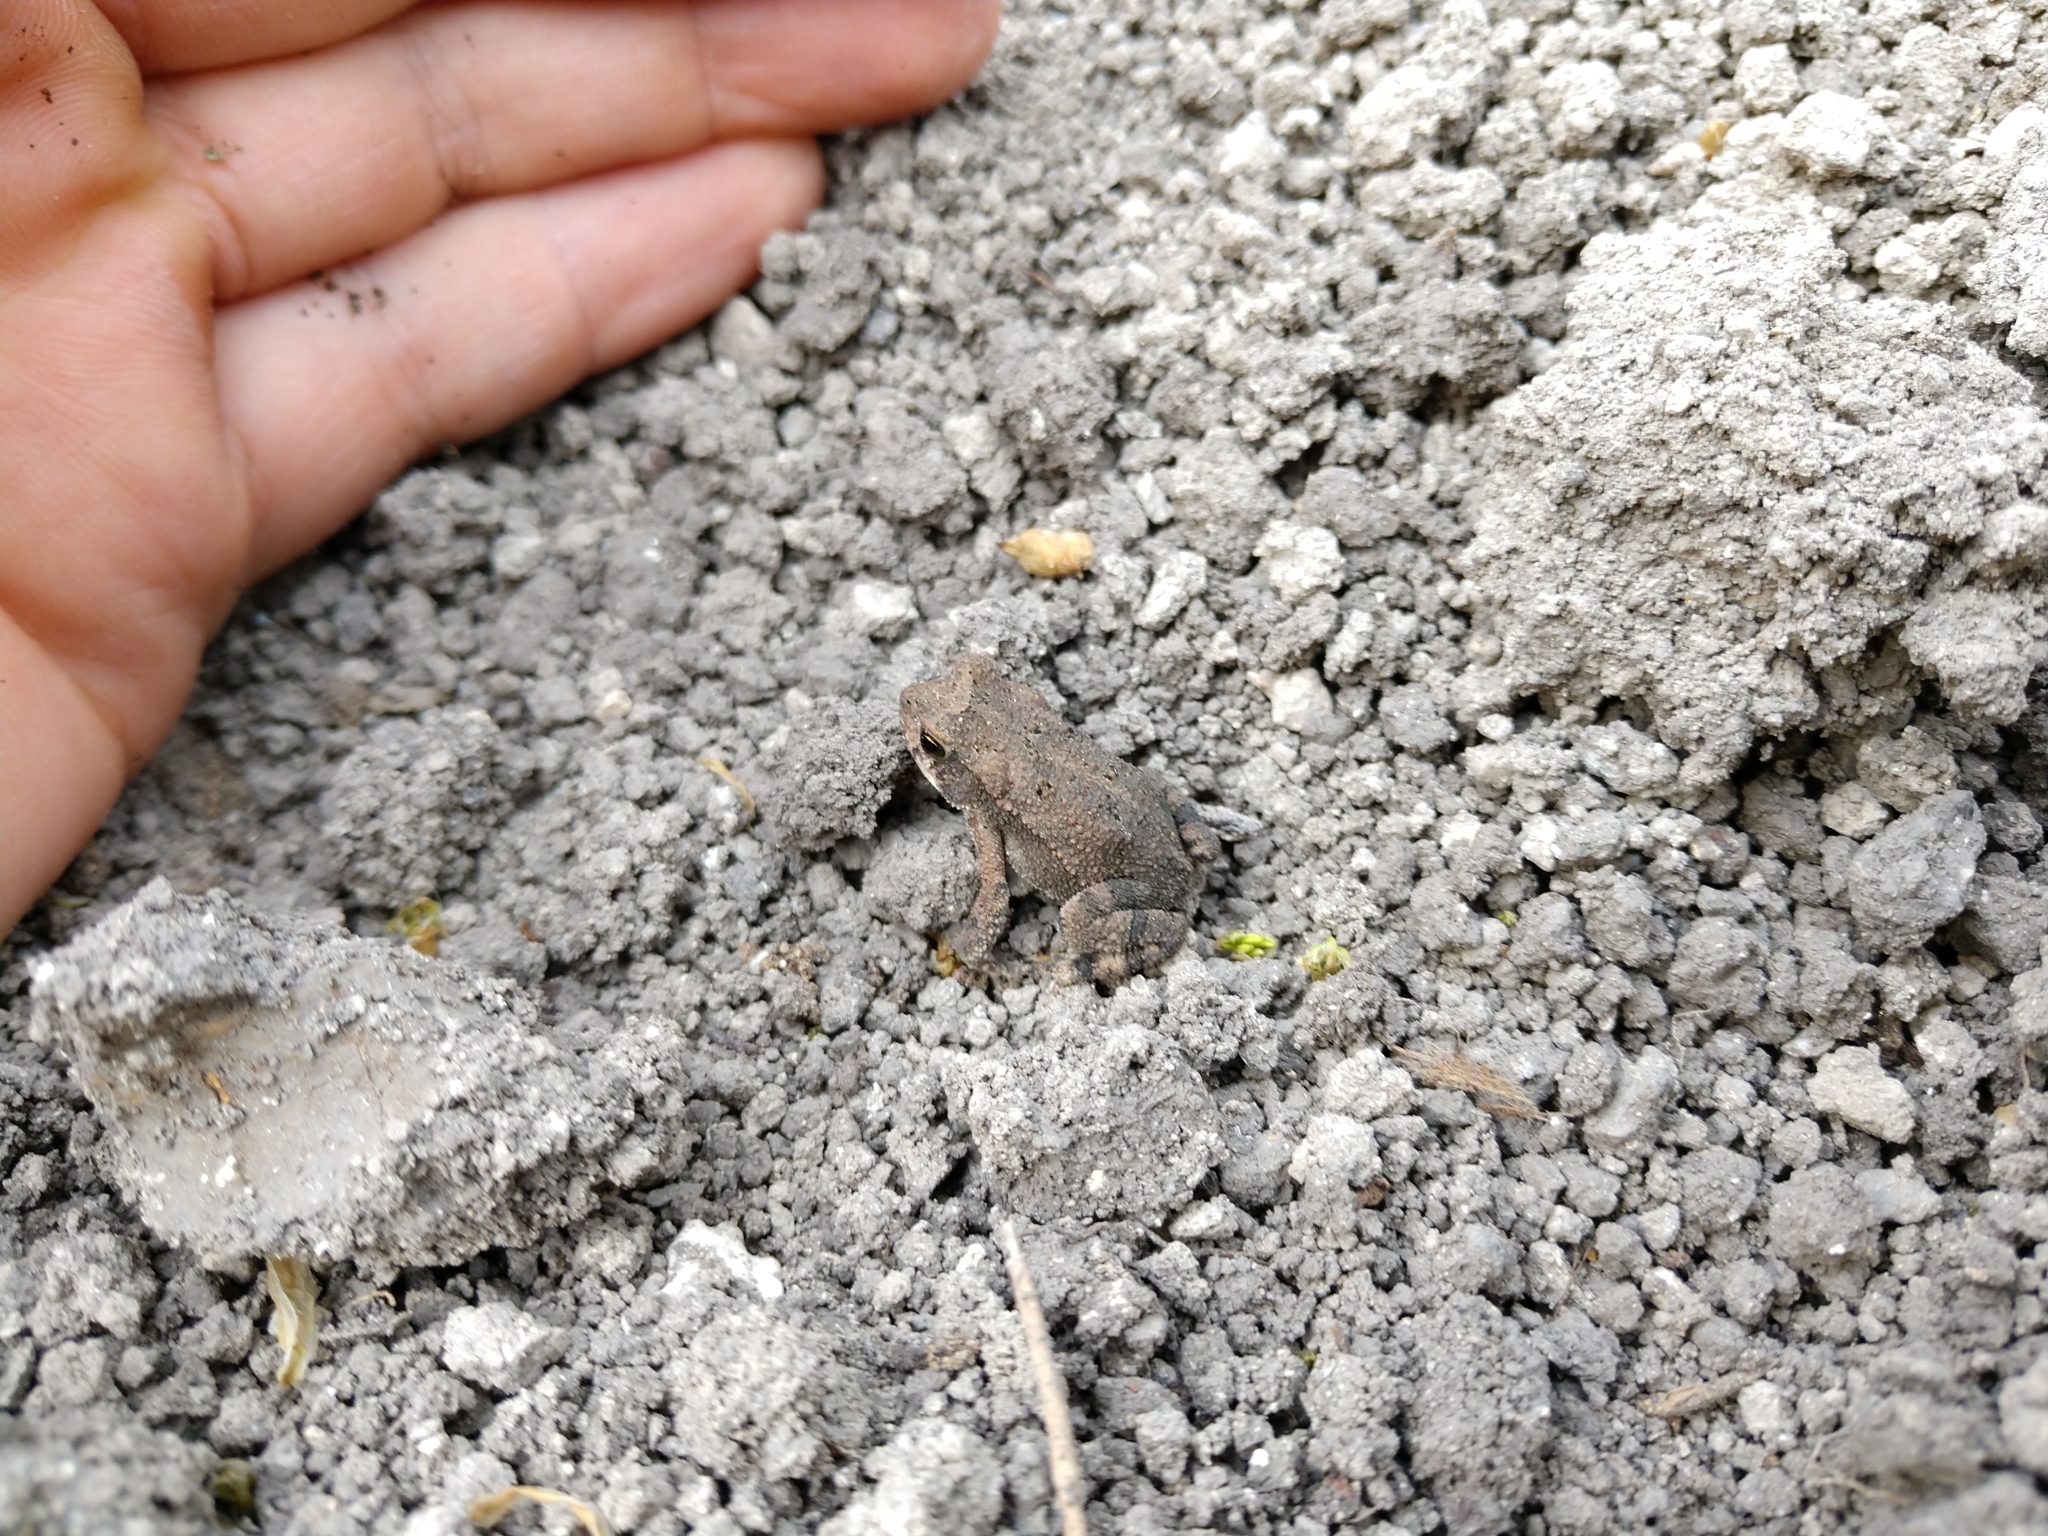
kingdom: Animalia
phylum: Chordata
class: Amphibia
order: Anura
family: Bufonidae
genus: Incilius
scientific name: Incilius nebulifer
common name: Gulf coast toad
